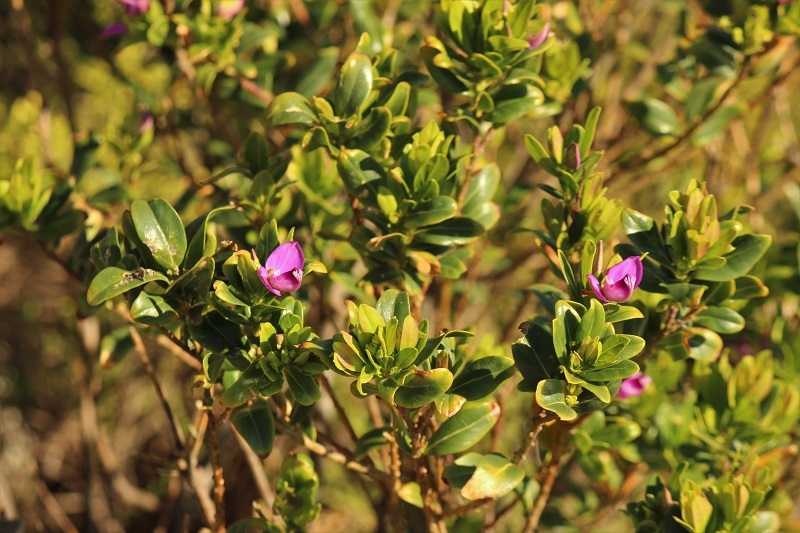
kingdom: Plantae
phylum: Tracheophyta
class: Magnoliopsida
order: Fabales
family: Polygalaceae
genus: Polygala
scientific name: Polygala myrtifolia
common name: Myrtle-leaf milkwort
